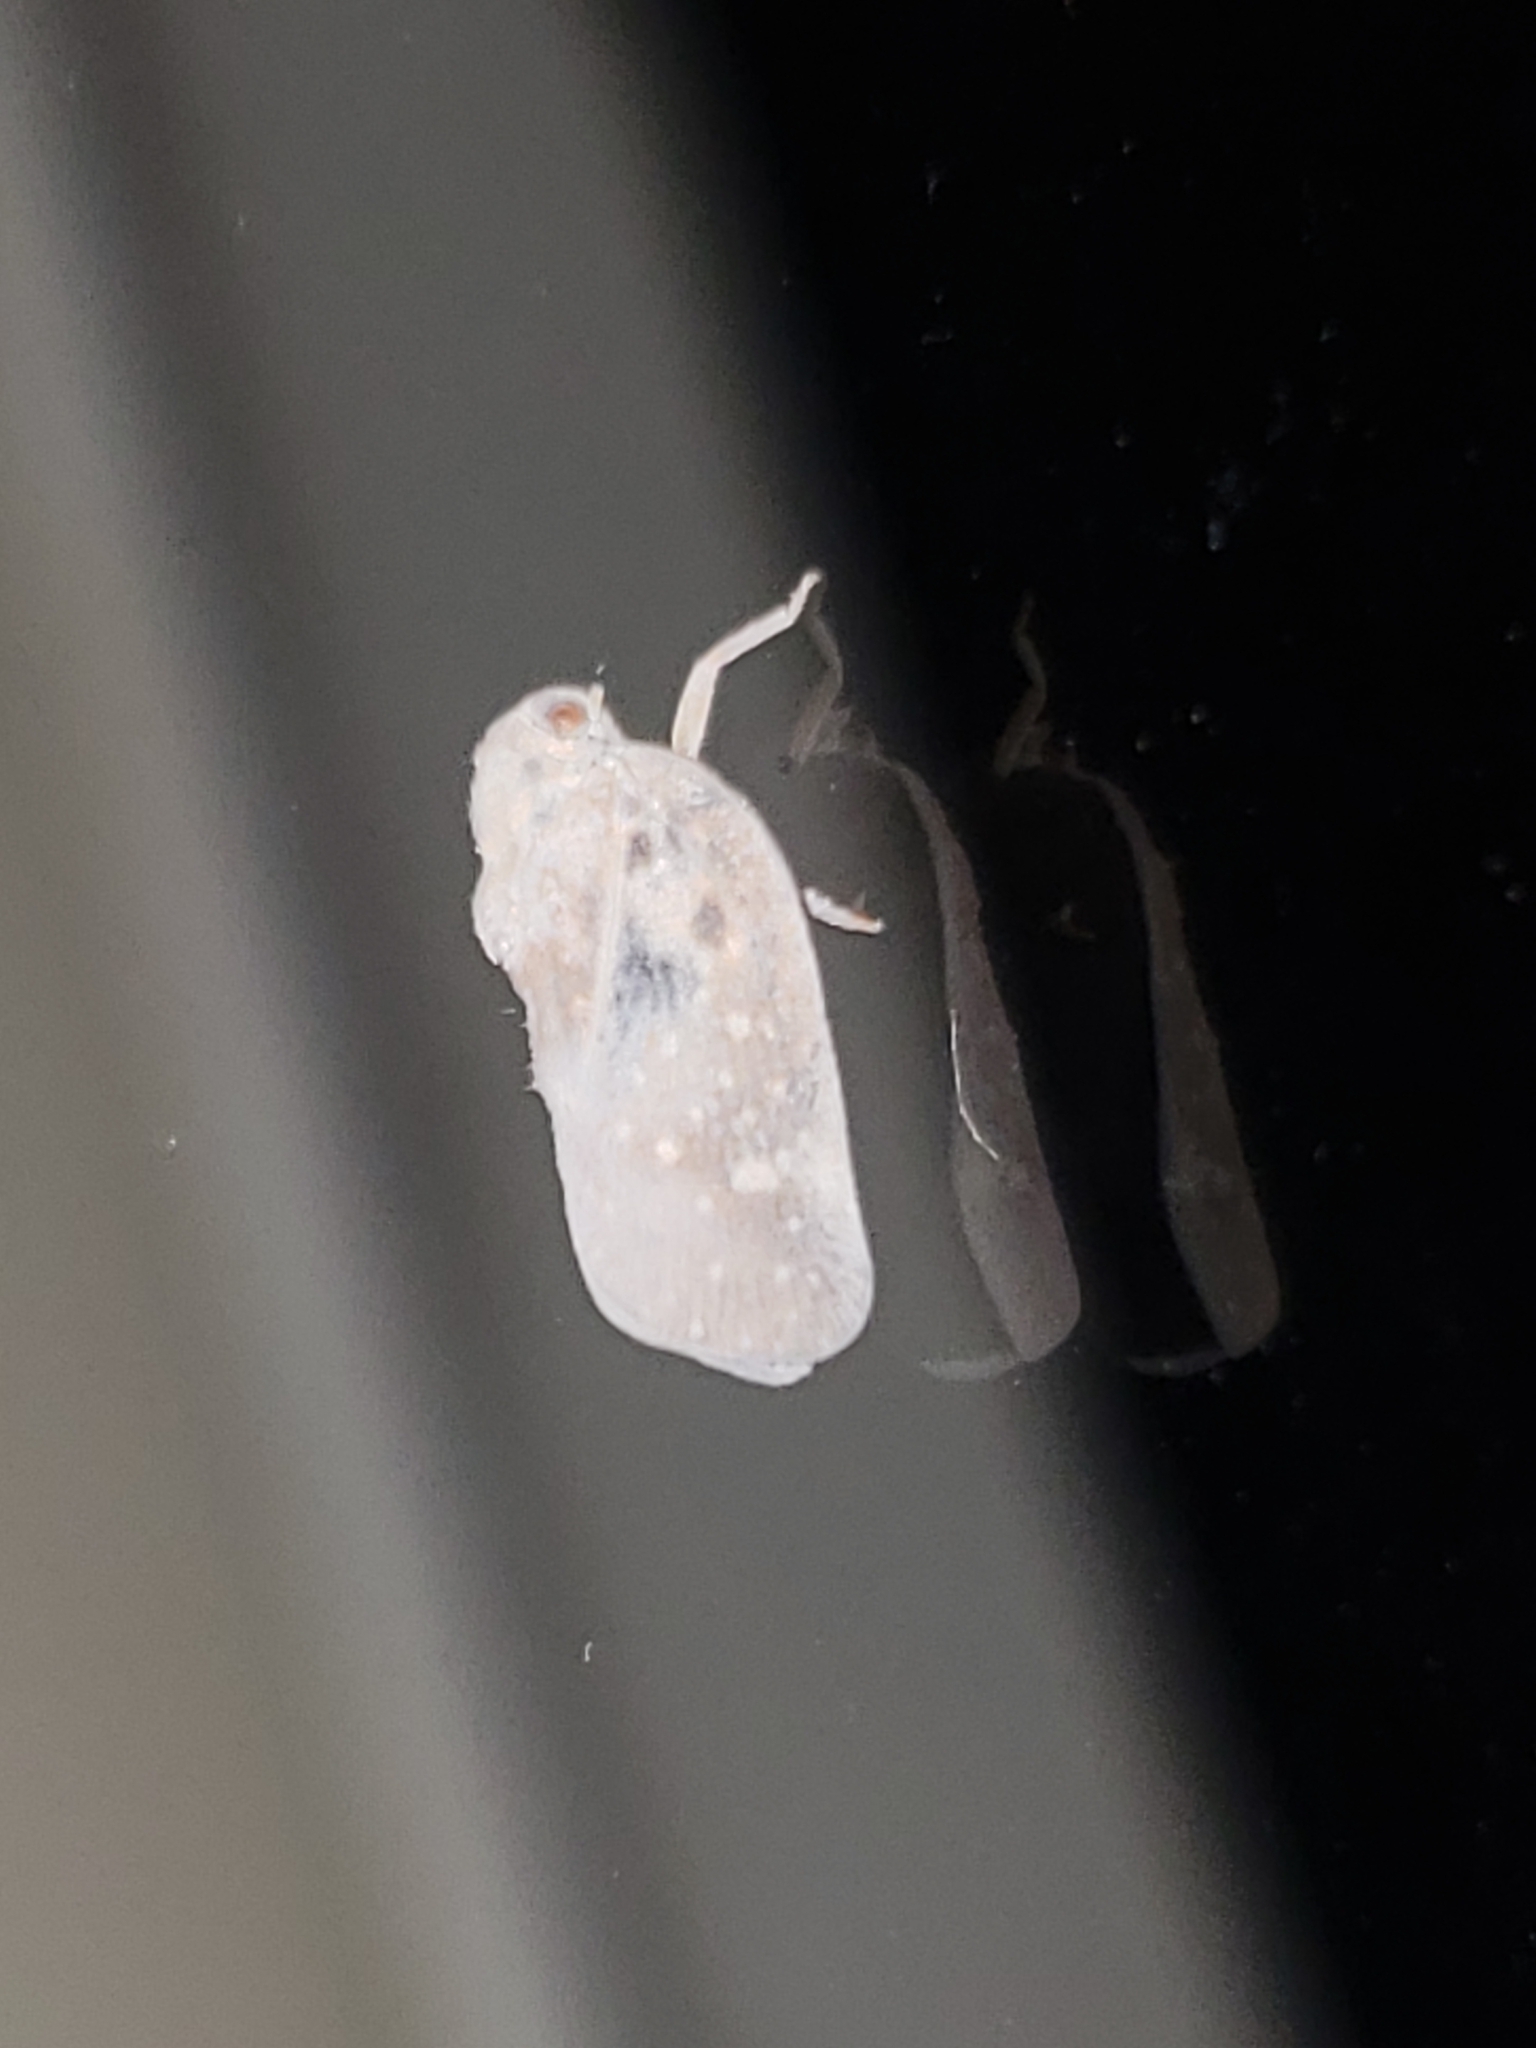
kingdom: Animalia
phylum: Arthropoda
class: Insecta
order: Hemiptera
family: Flatidae
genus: Metcalfa
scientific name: Metcalfa pruinosa
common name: Citrus flatid planthopper
